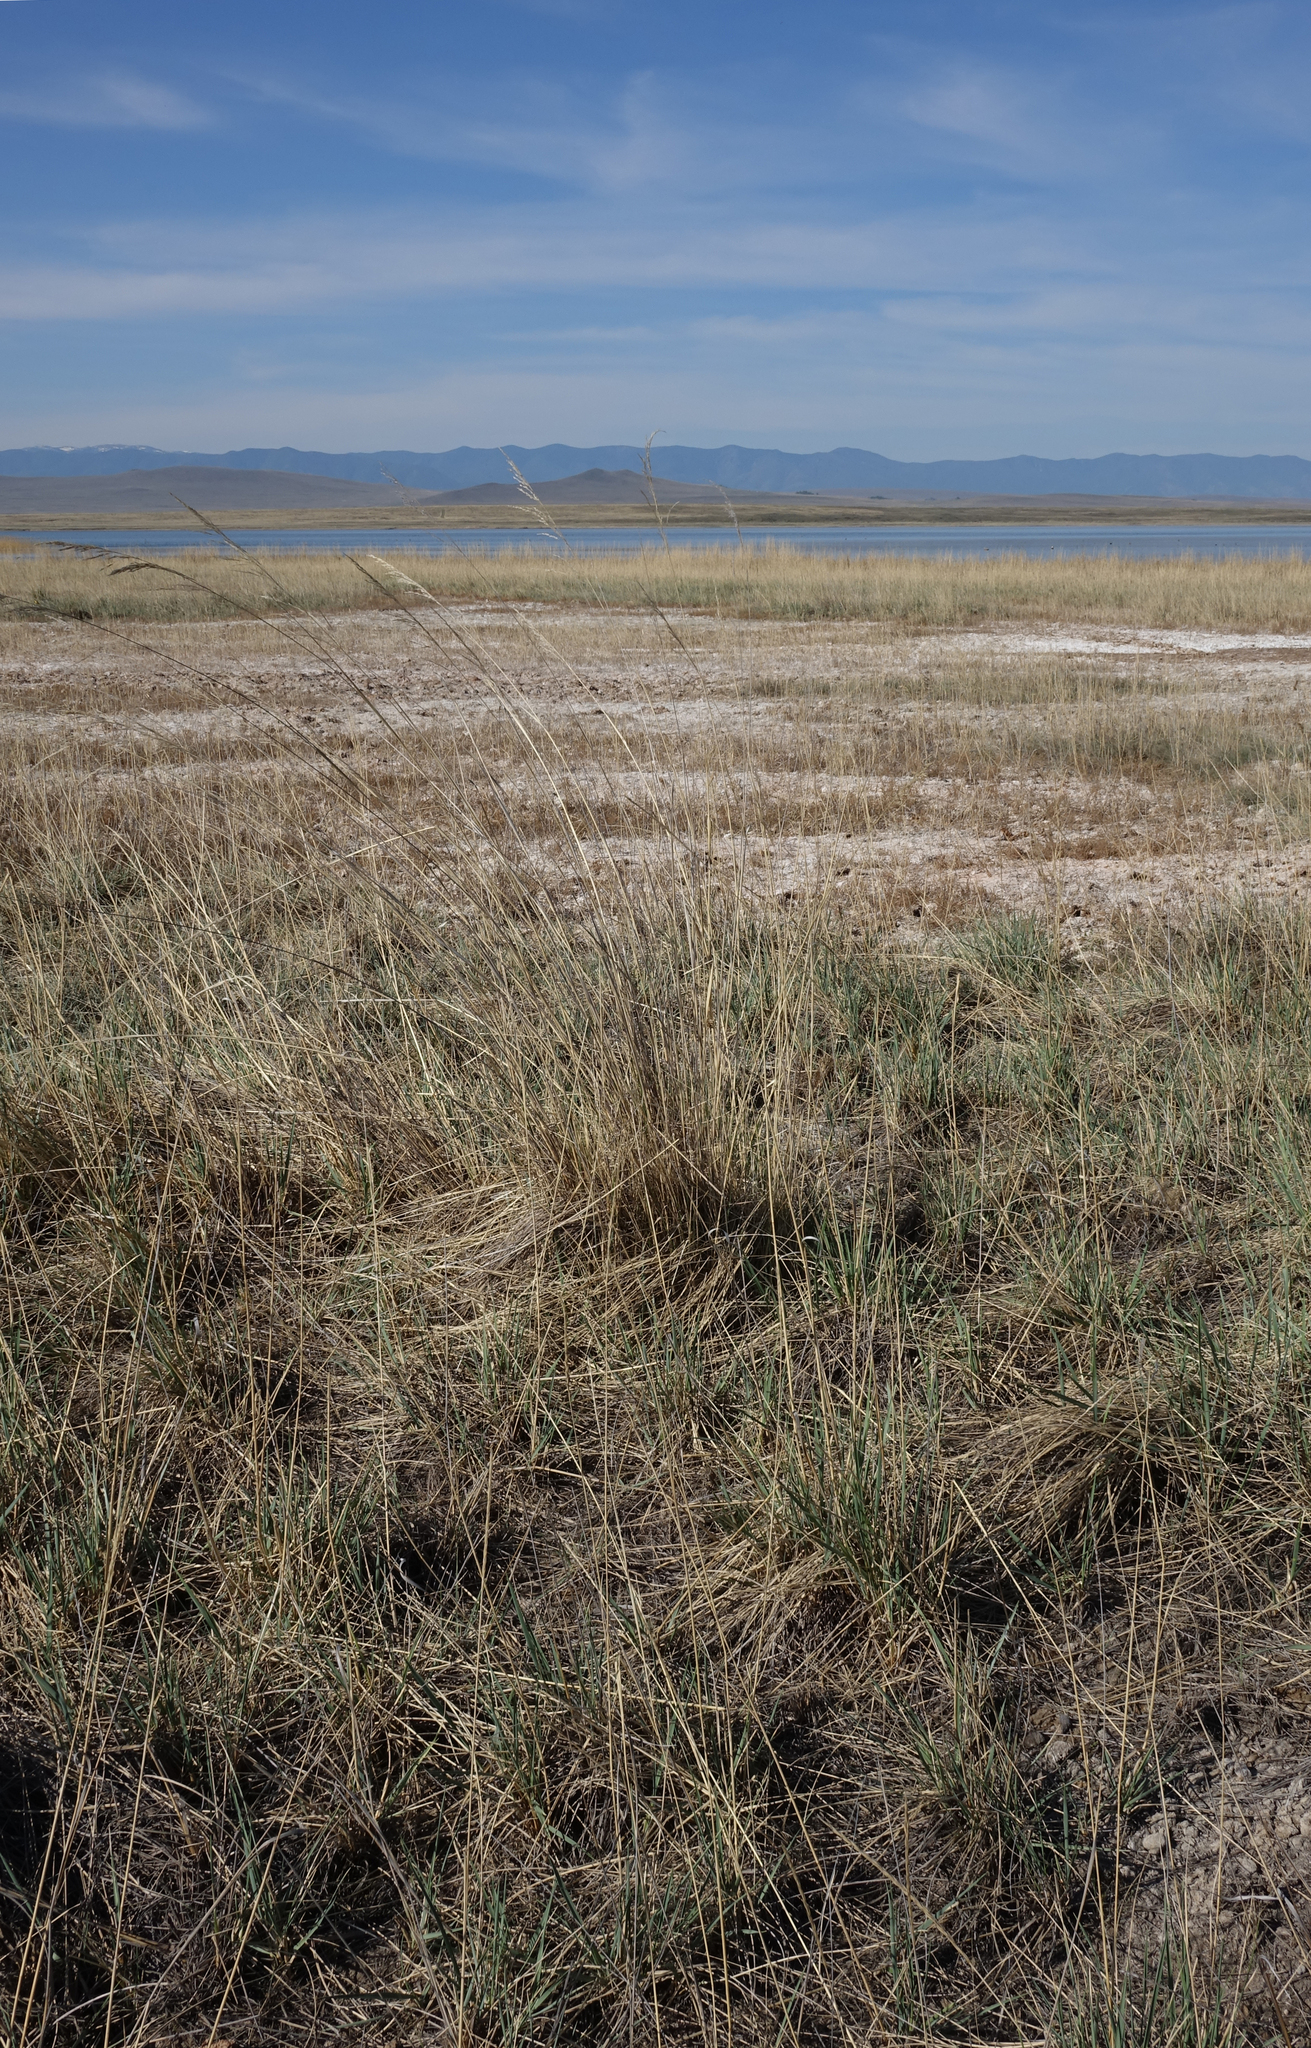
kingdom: Plantae
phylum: Tracheophyta
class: Liliopsida
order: Poales
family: Poaceae
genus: Neotrinia
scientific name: Neotrinia splendens
